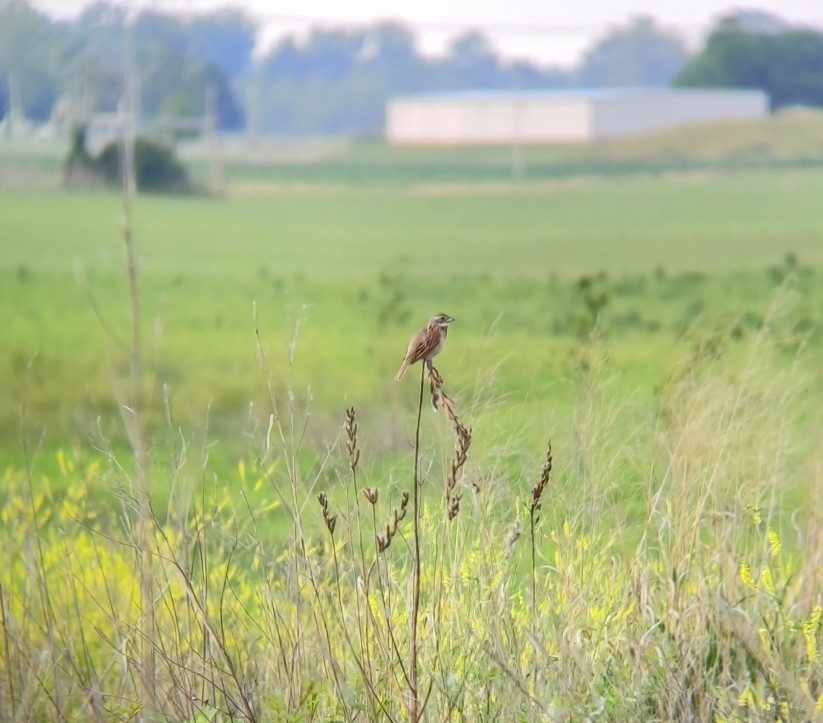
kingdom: Animalia
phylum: Chordata
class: Aves
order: Passeriformes
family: Cardinalidae
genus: Spiza
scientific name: Spiza americana
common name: Dickcissel
